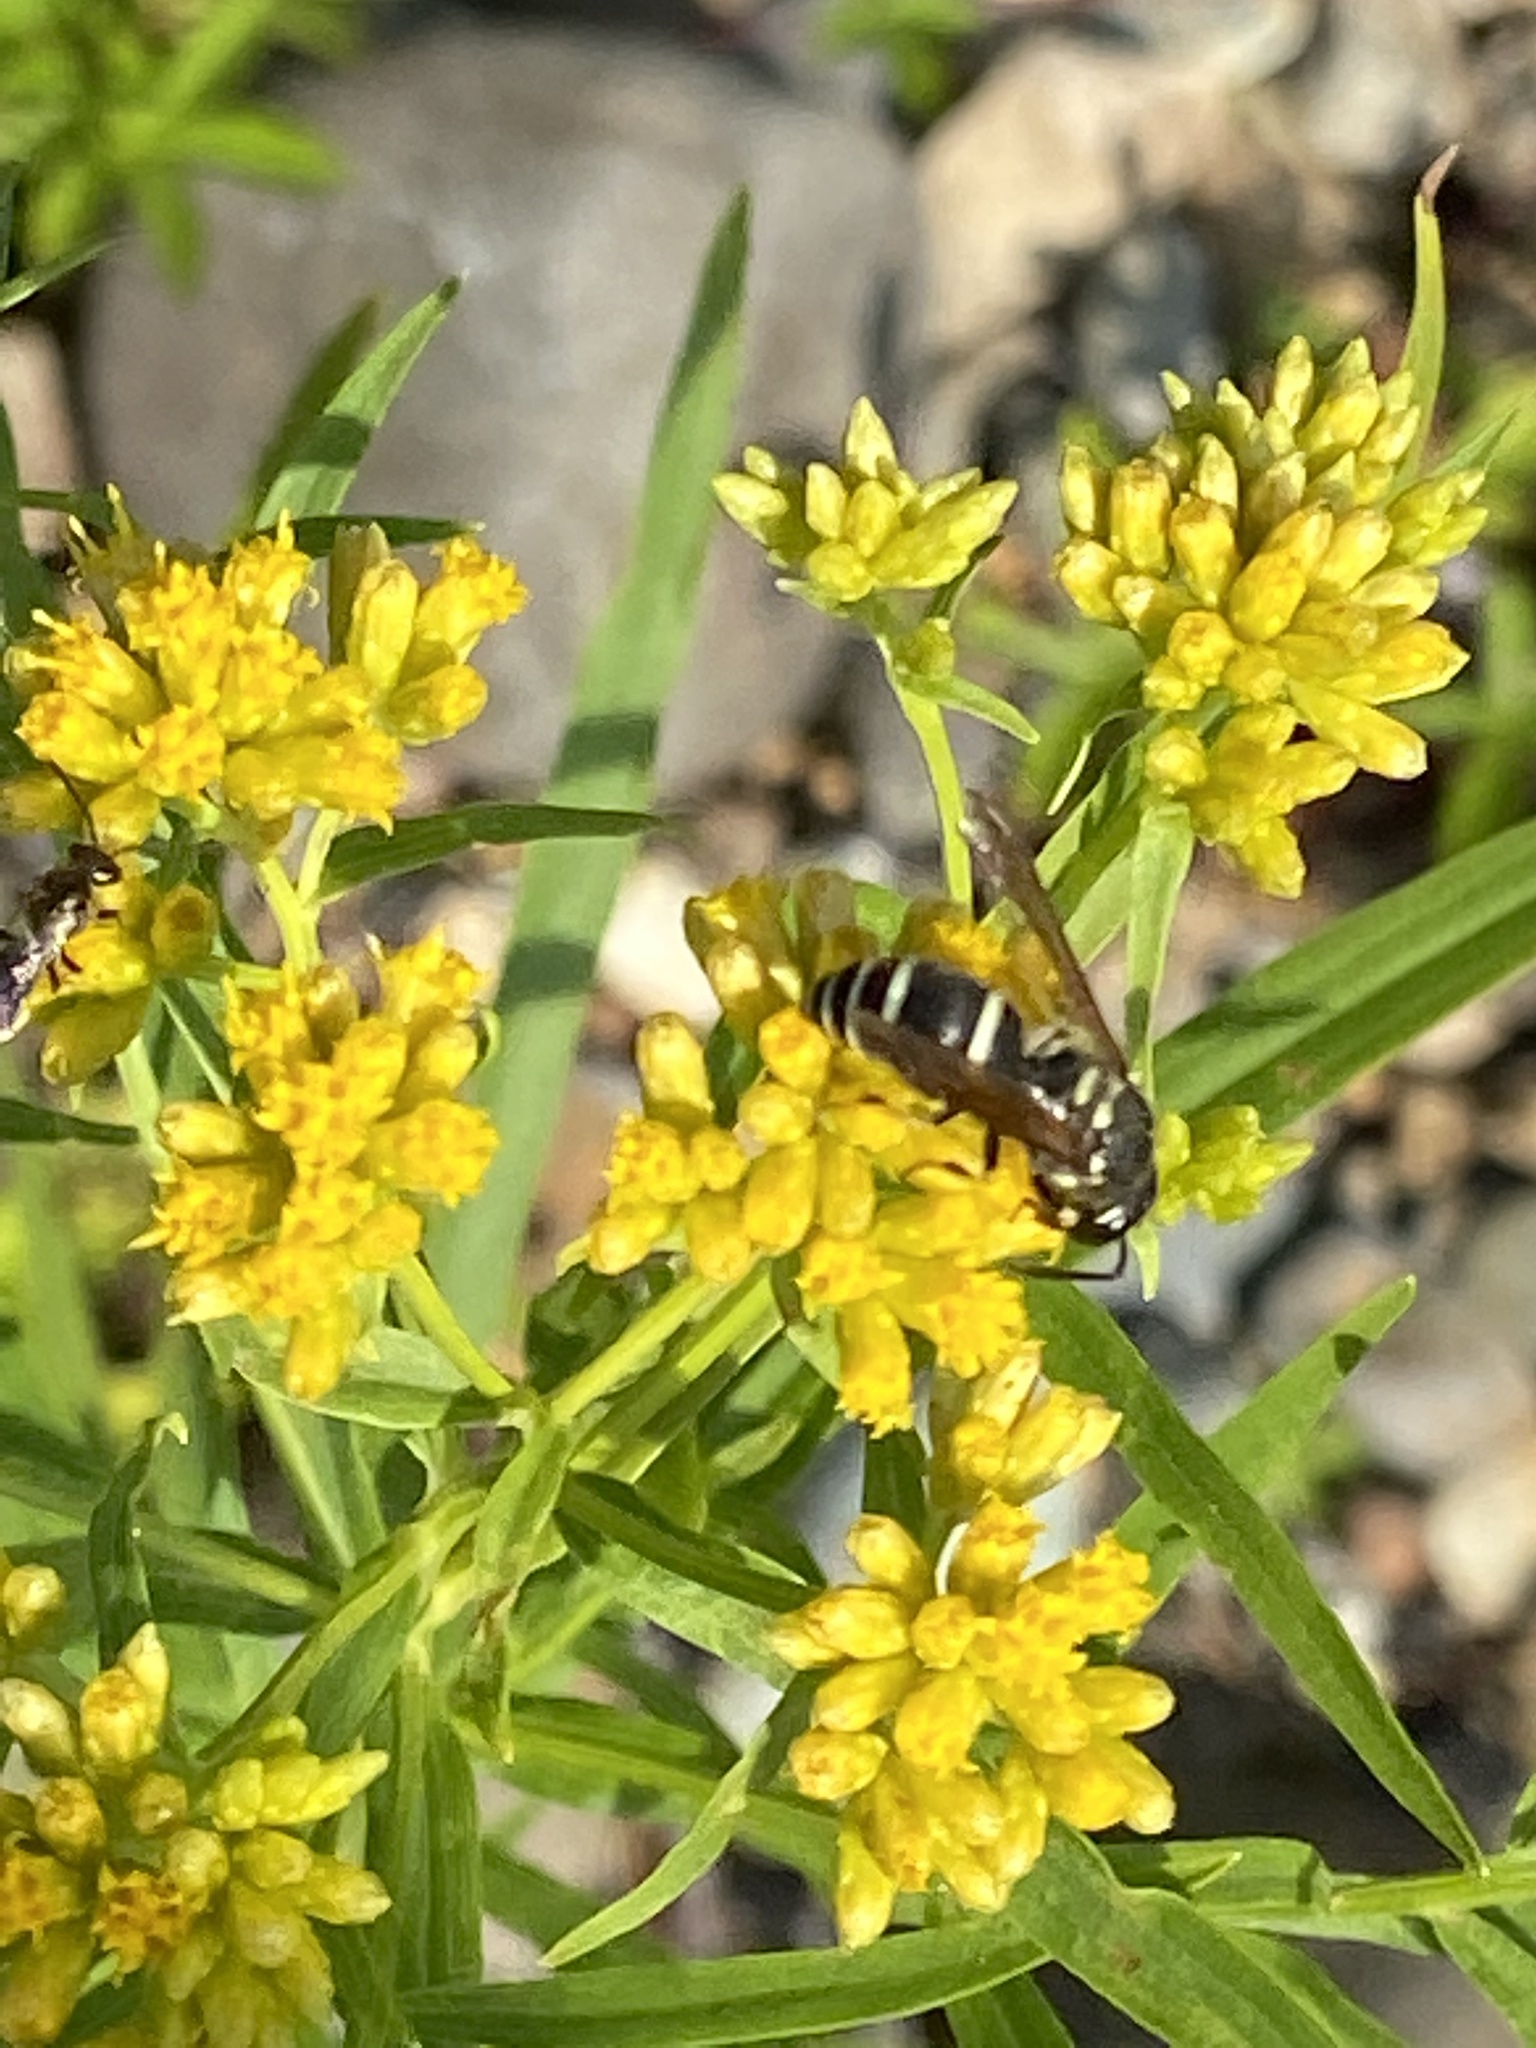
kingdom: Animalia
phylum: Arthropoda
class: Insecta
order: Hymenoptera
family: Vespidae
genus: Ancistrocerus
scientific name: Ancistrocerus
